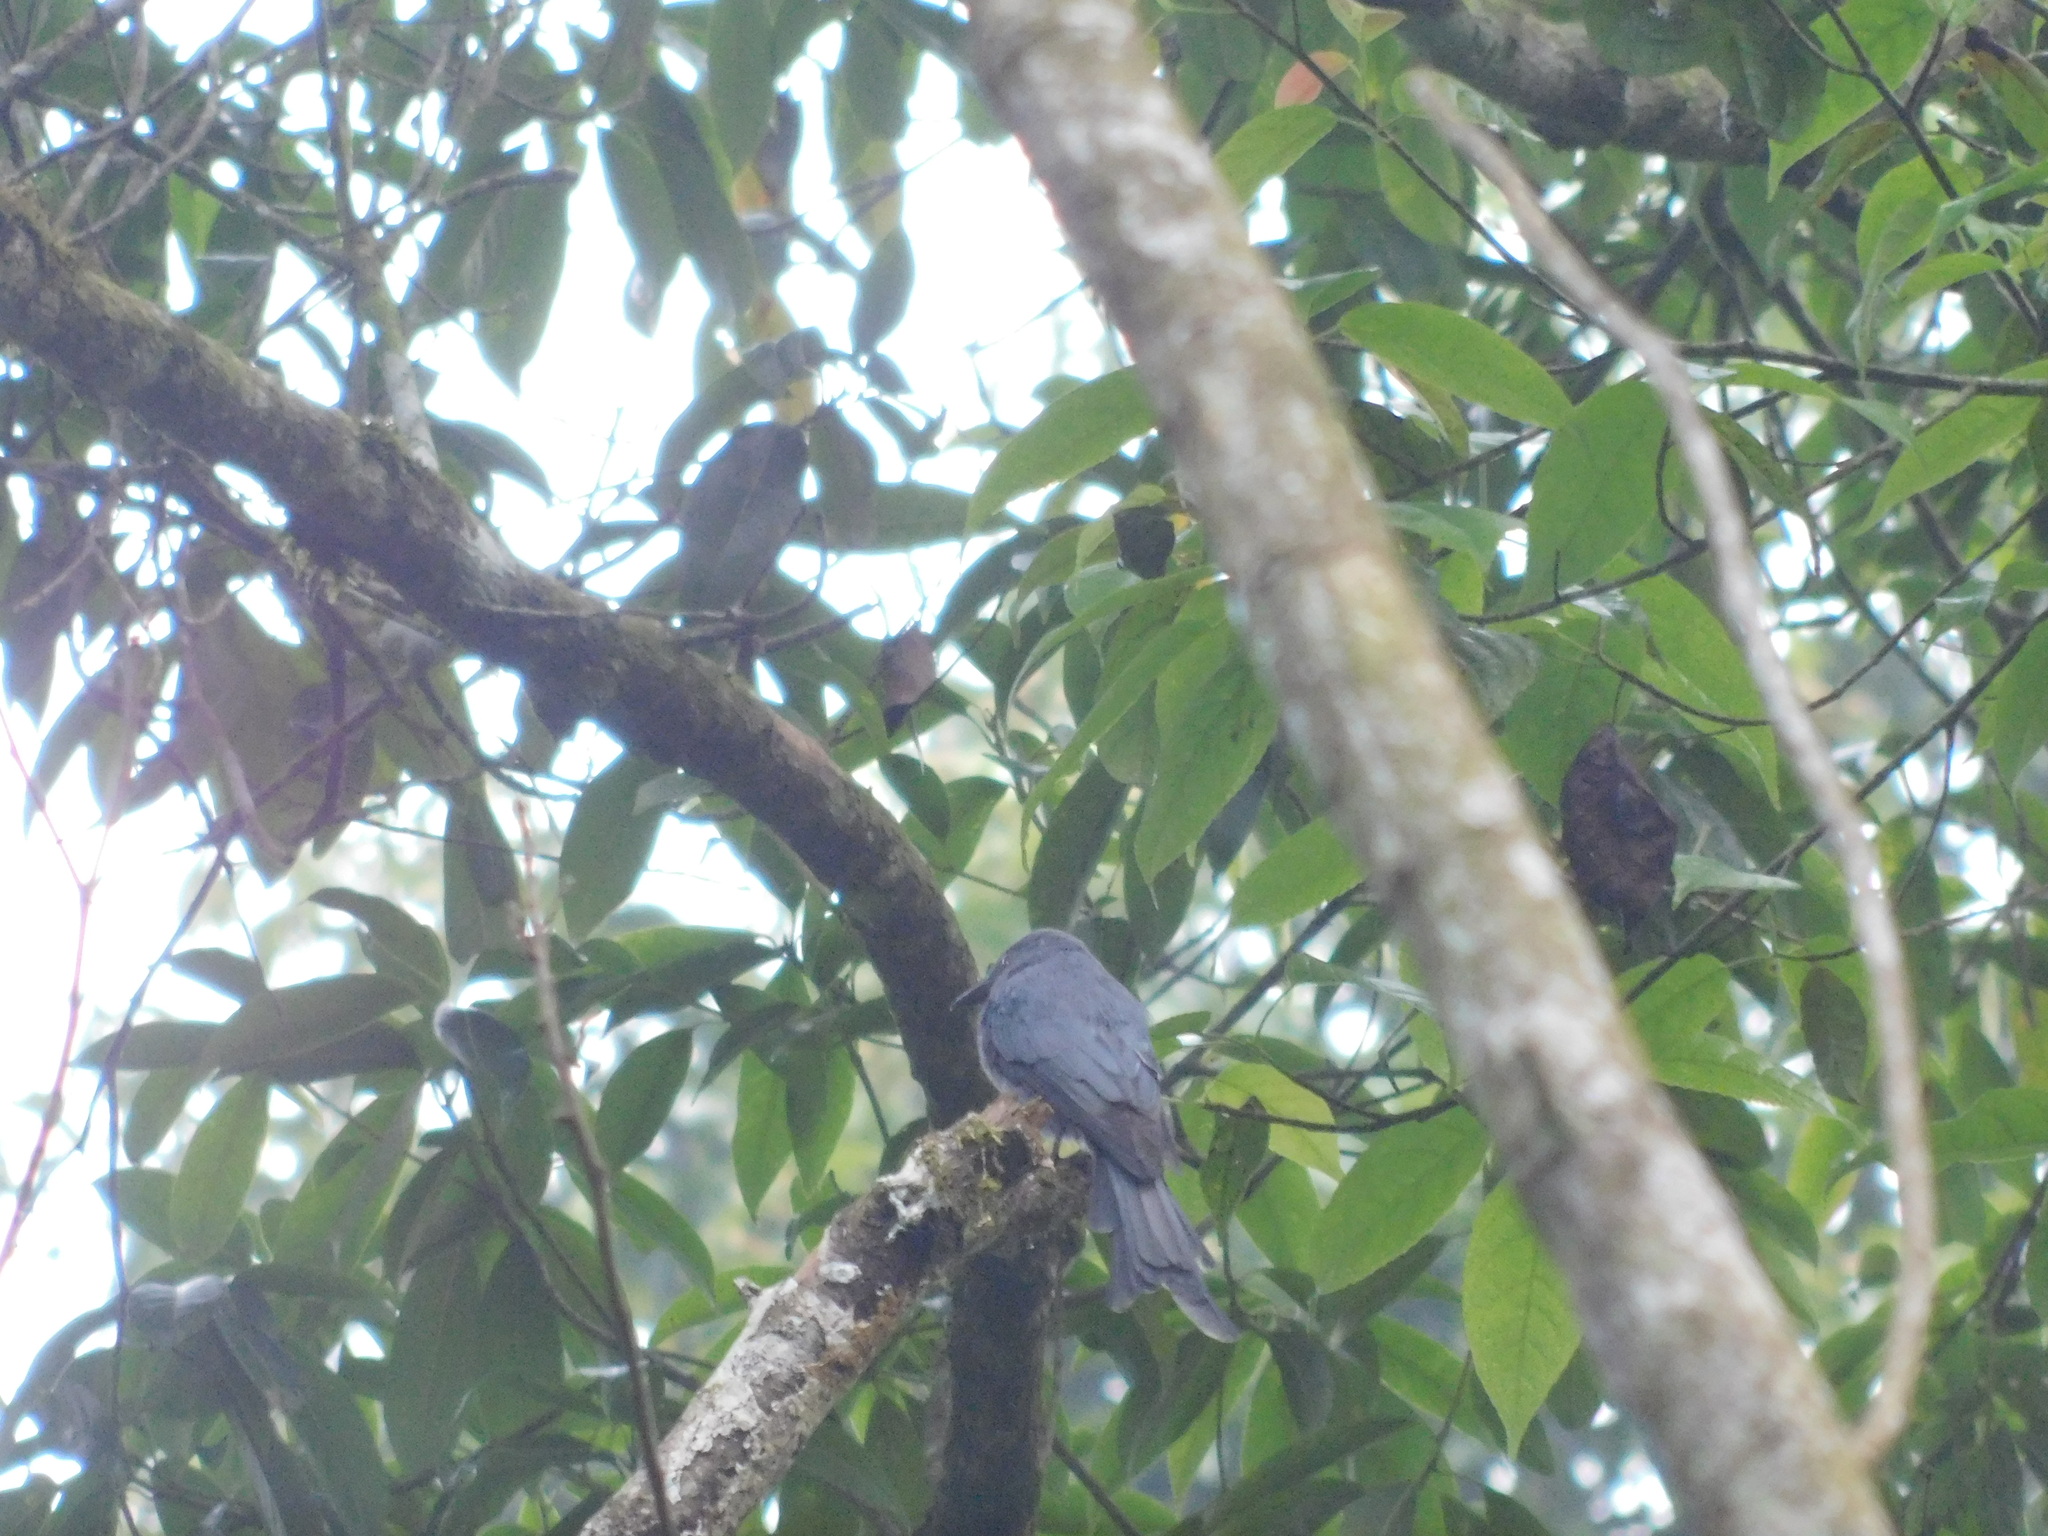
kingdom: Animalia
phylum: Chordata
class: Aves
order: Passeriformes
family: Dicruridae
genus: Dicrurus
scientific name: Dicrurus leucophaeus
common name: Ashy drongo
